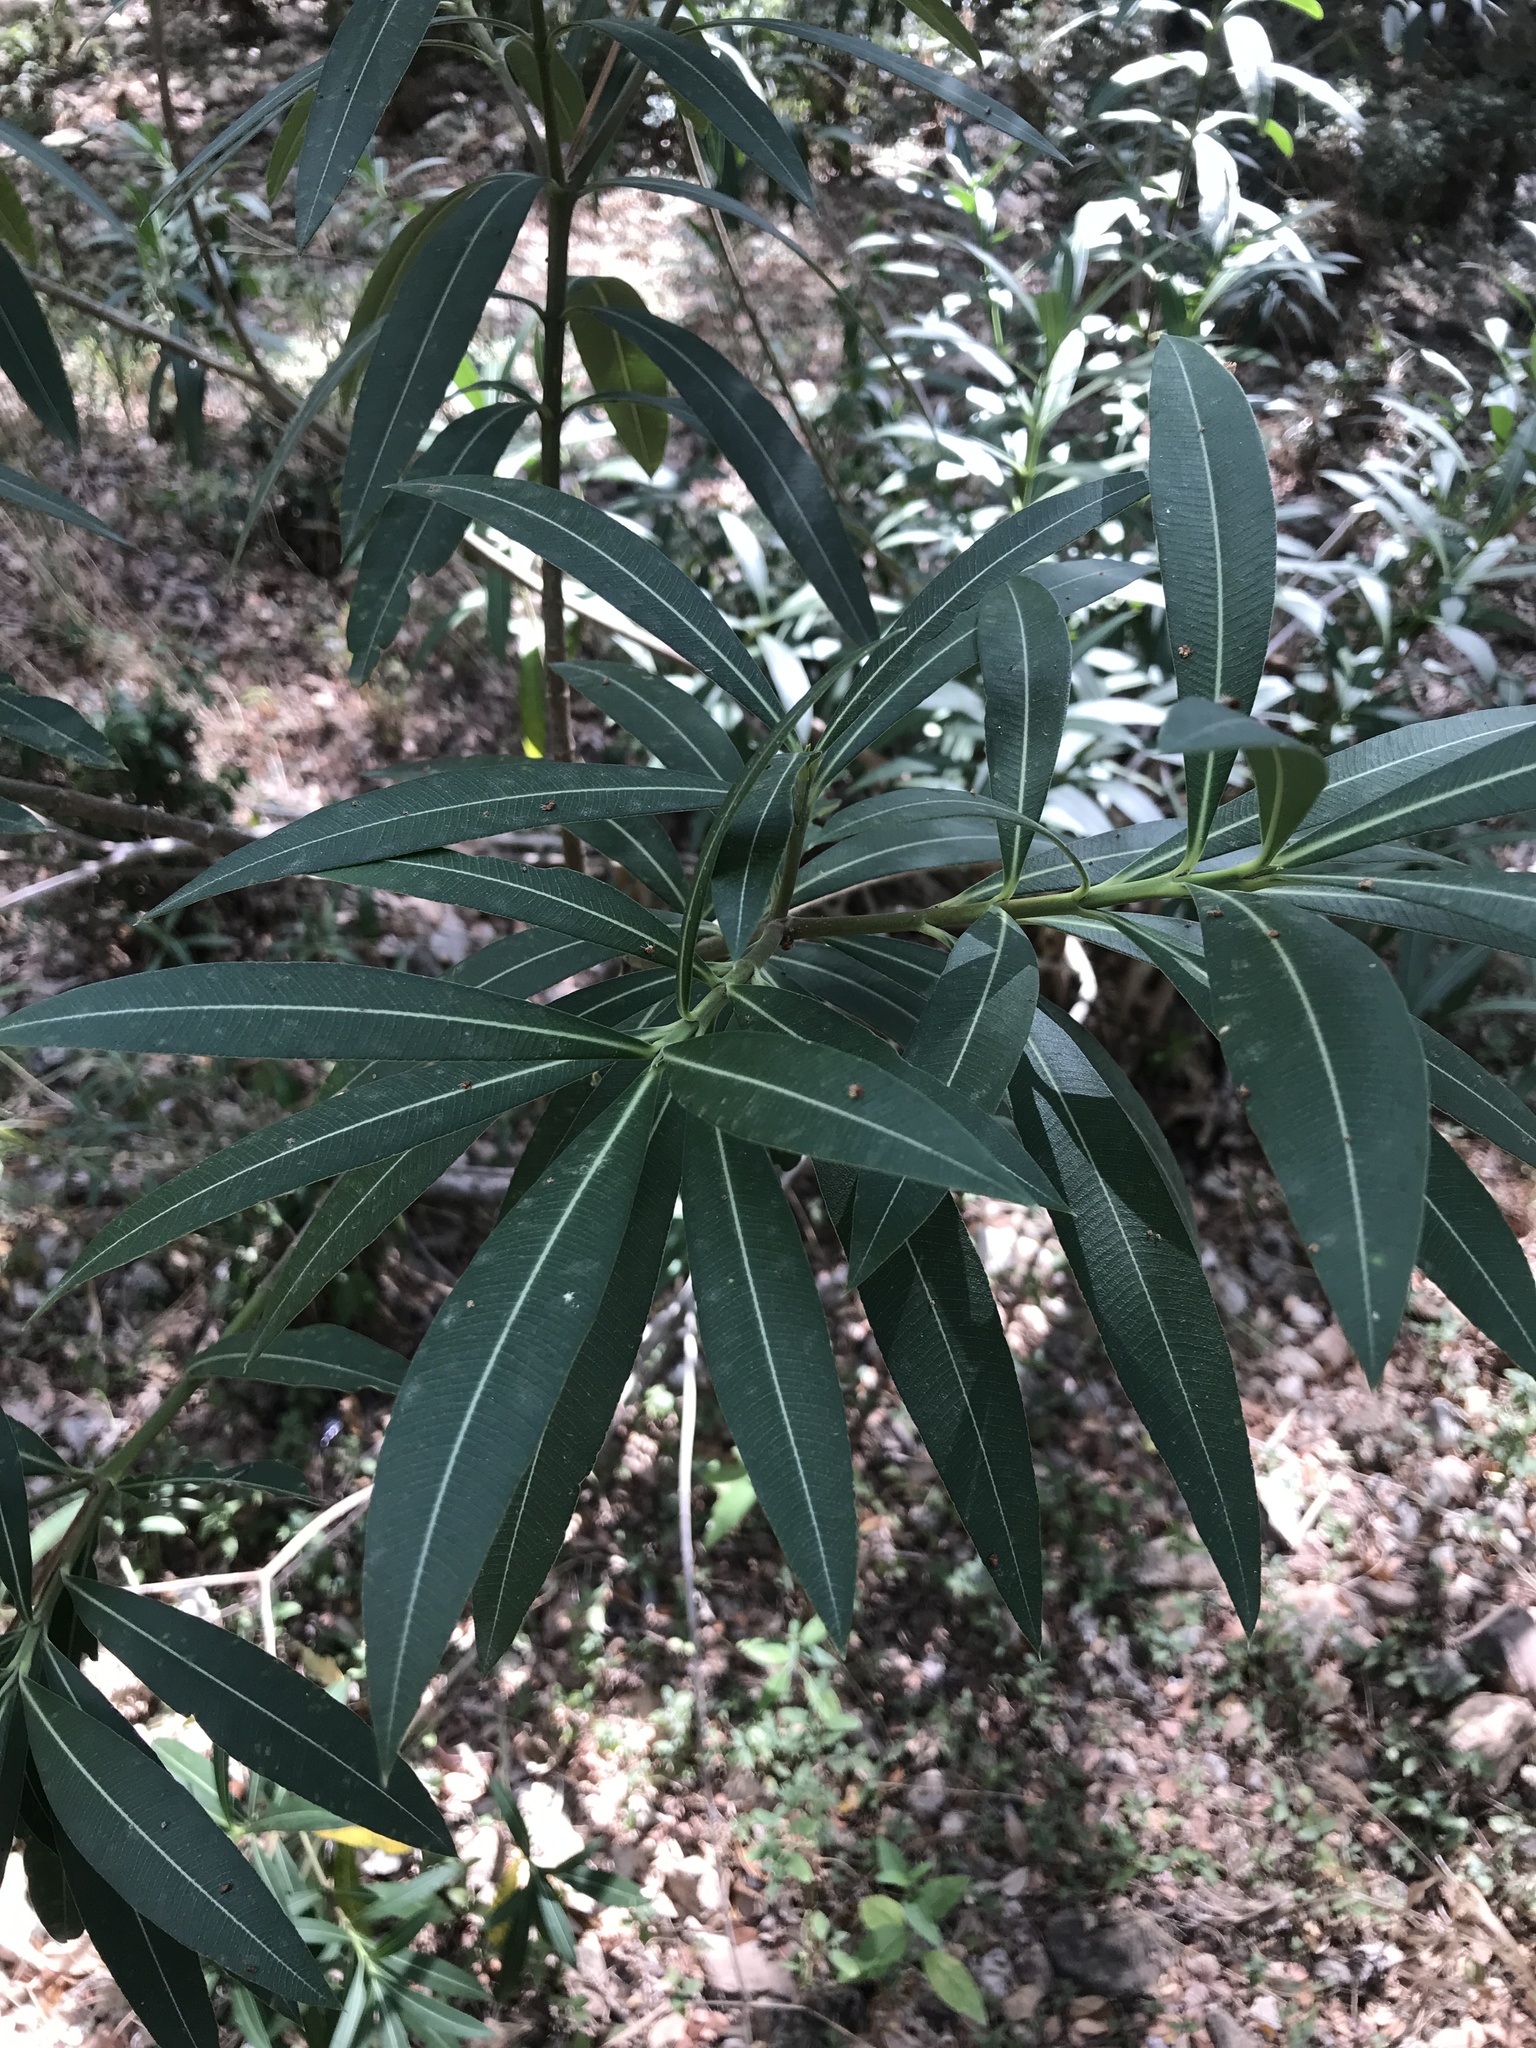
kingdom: Plantae
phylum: Tracheophyta
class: Magnoliopsida
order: Gentianales
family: Apocynaceae
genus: Nerium
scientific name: Nerium oleander
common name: Oleander
